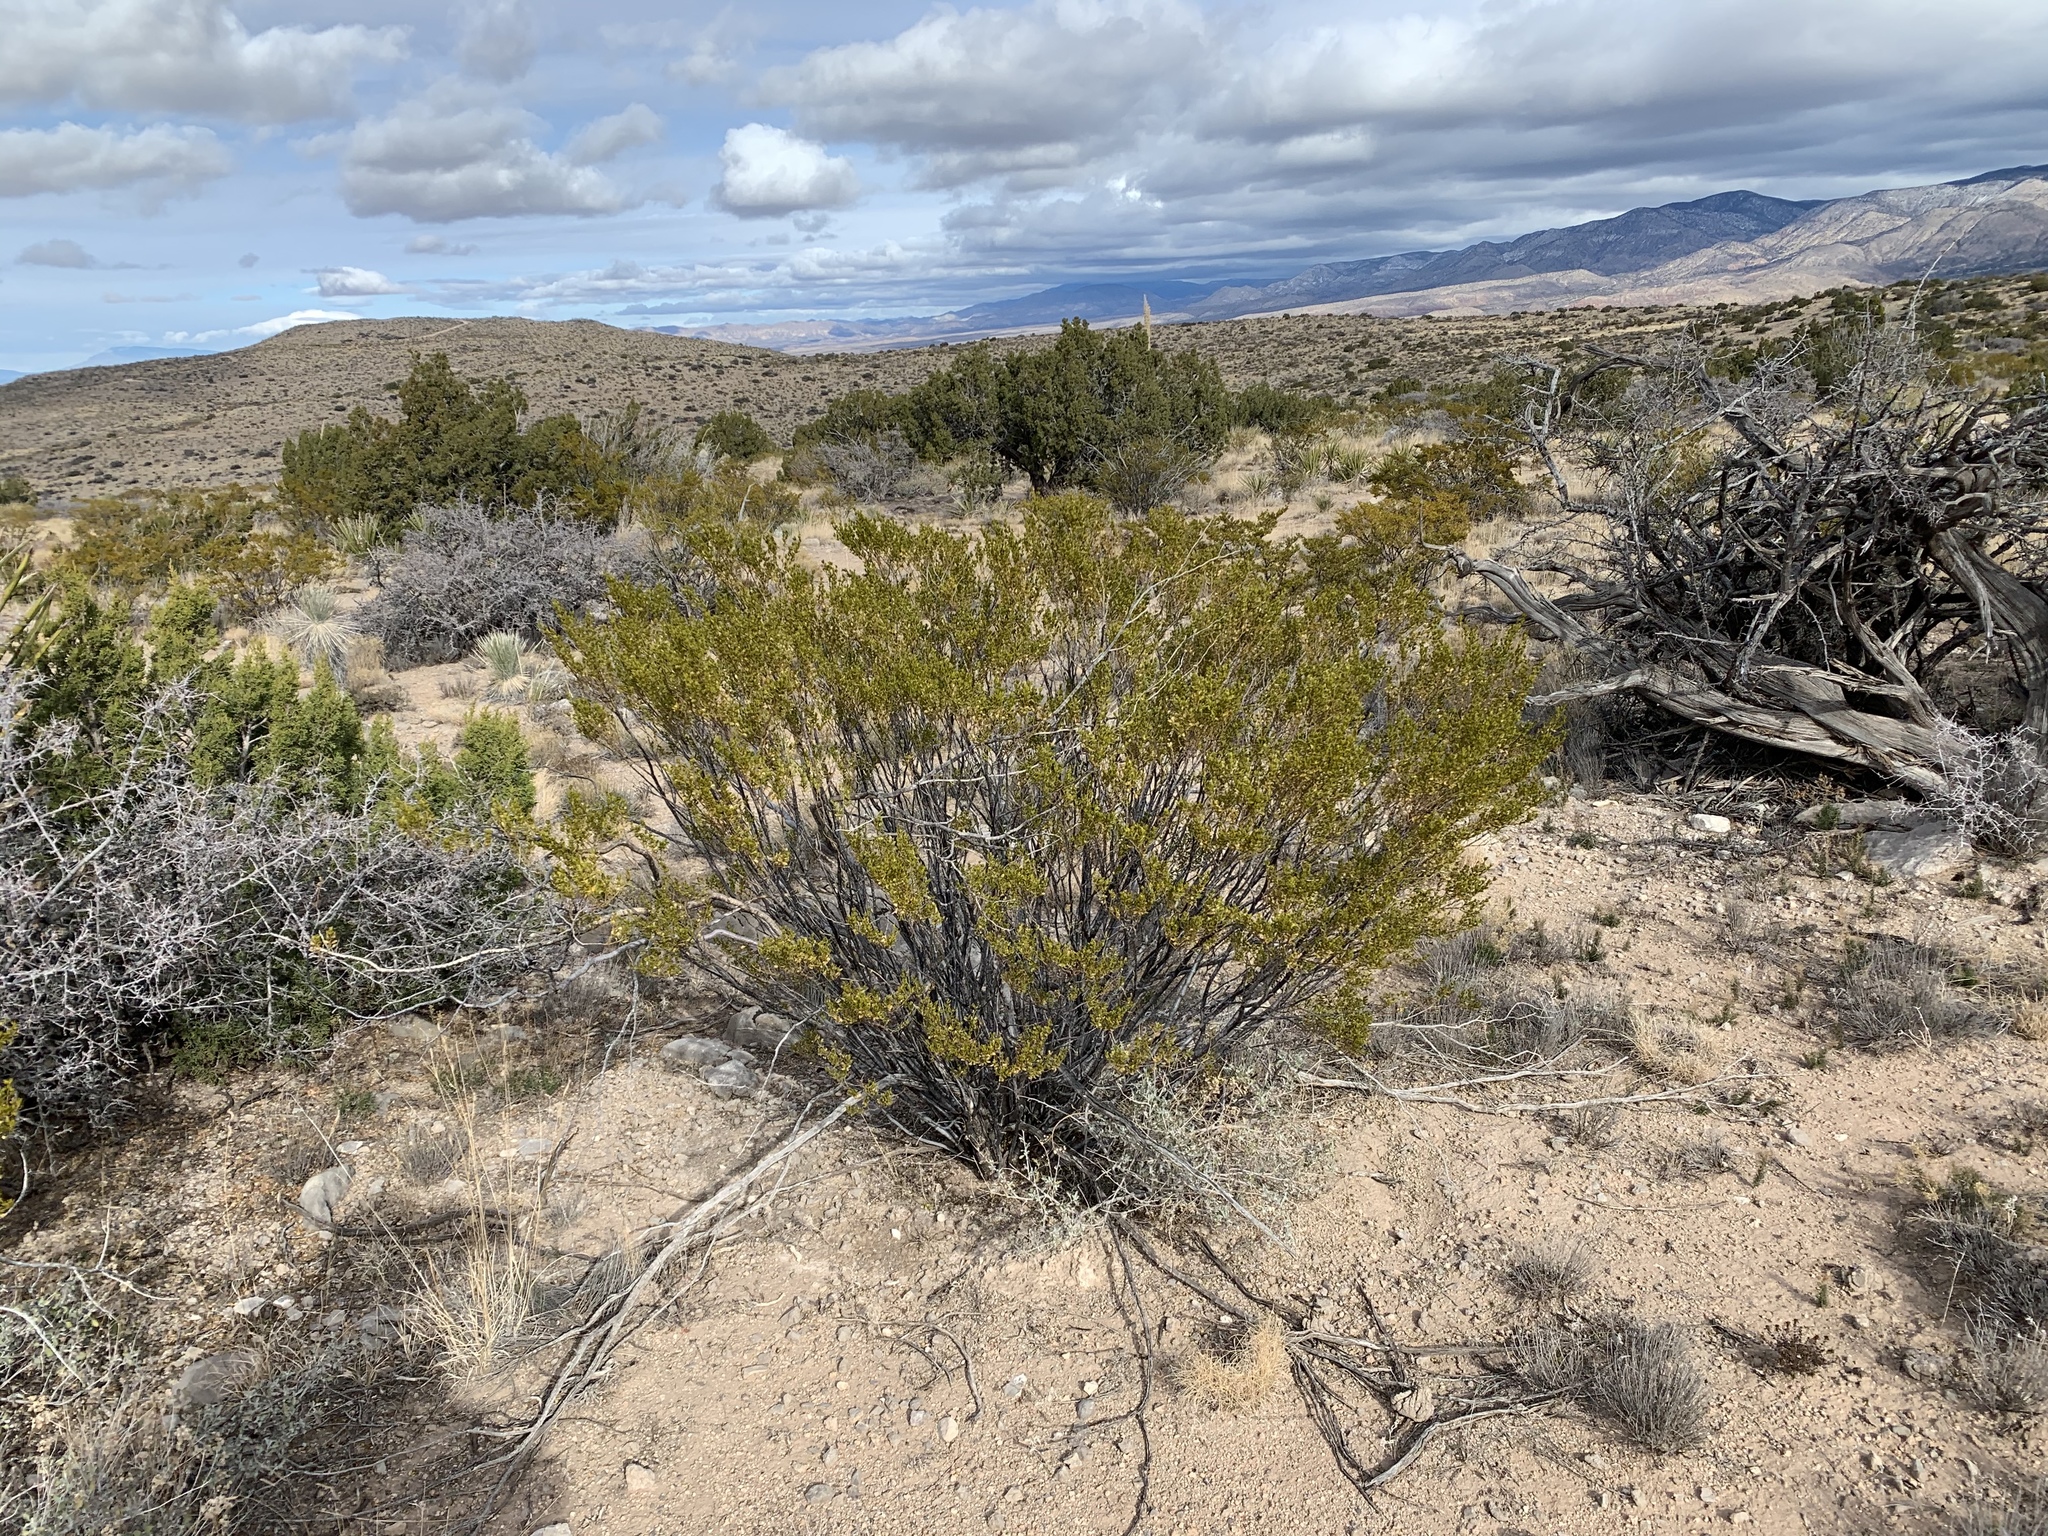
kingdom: Plantae
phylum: Tracheophyta
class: Magnoliopsida
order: Zygophyllales
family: Zygophyllaceae
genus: Larrea
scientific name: Larrea tridentata
